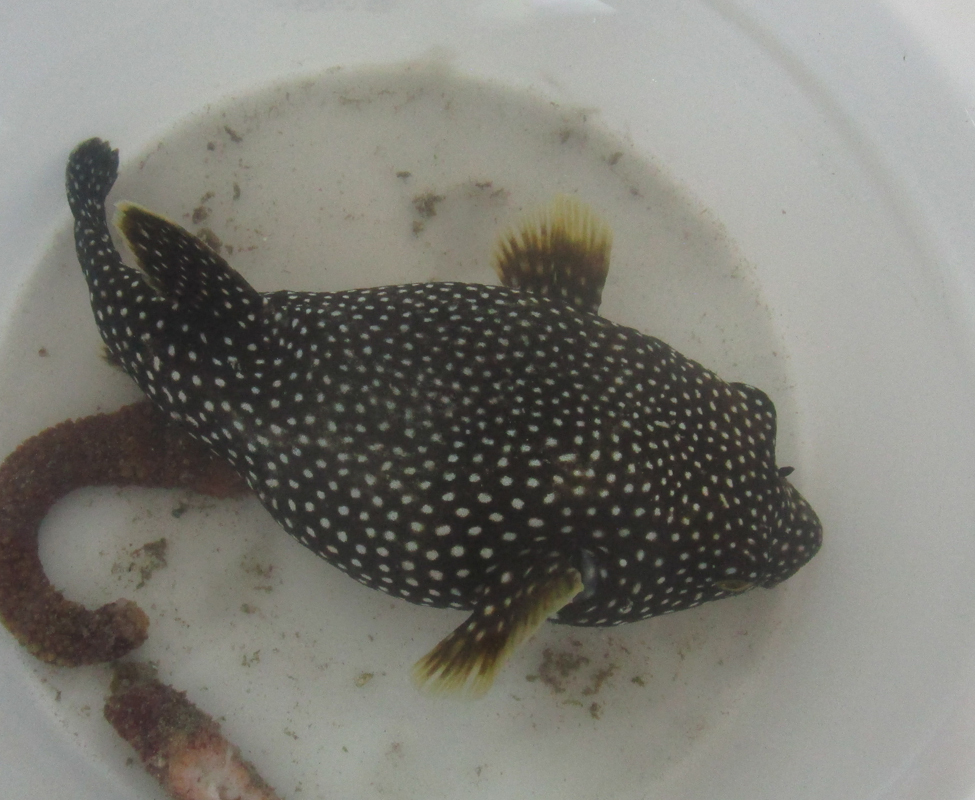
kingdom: Animalia
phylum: Chordata
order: Tetraodontiformes
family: Tetraodontidae
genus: Arothron
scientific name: Arothron meleagris
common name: Guinea-fowl pufferfish
